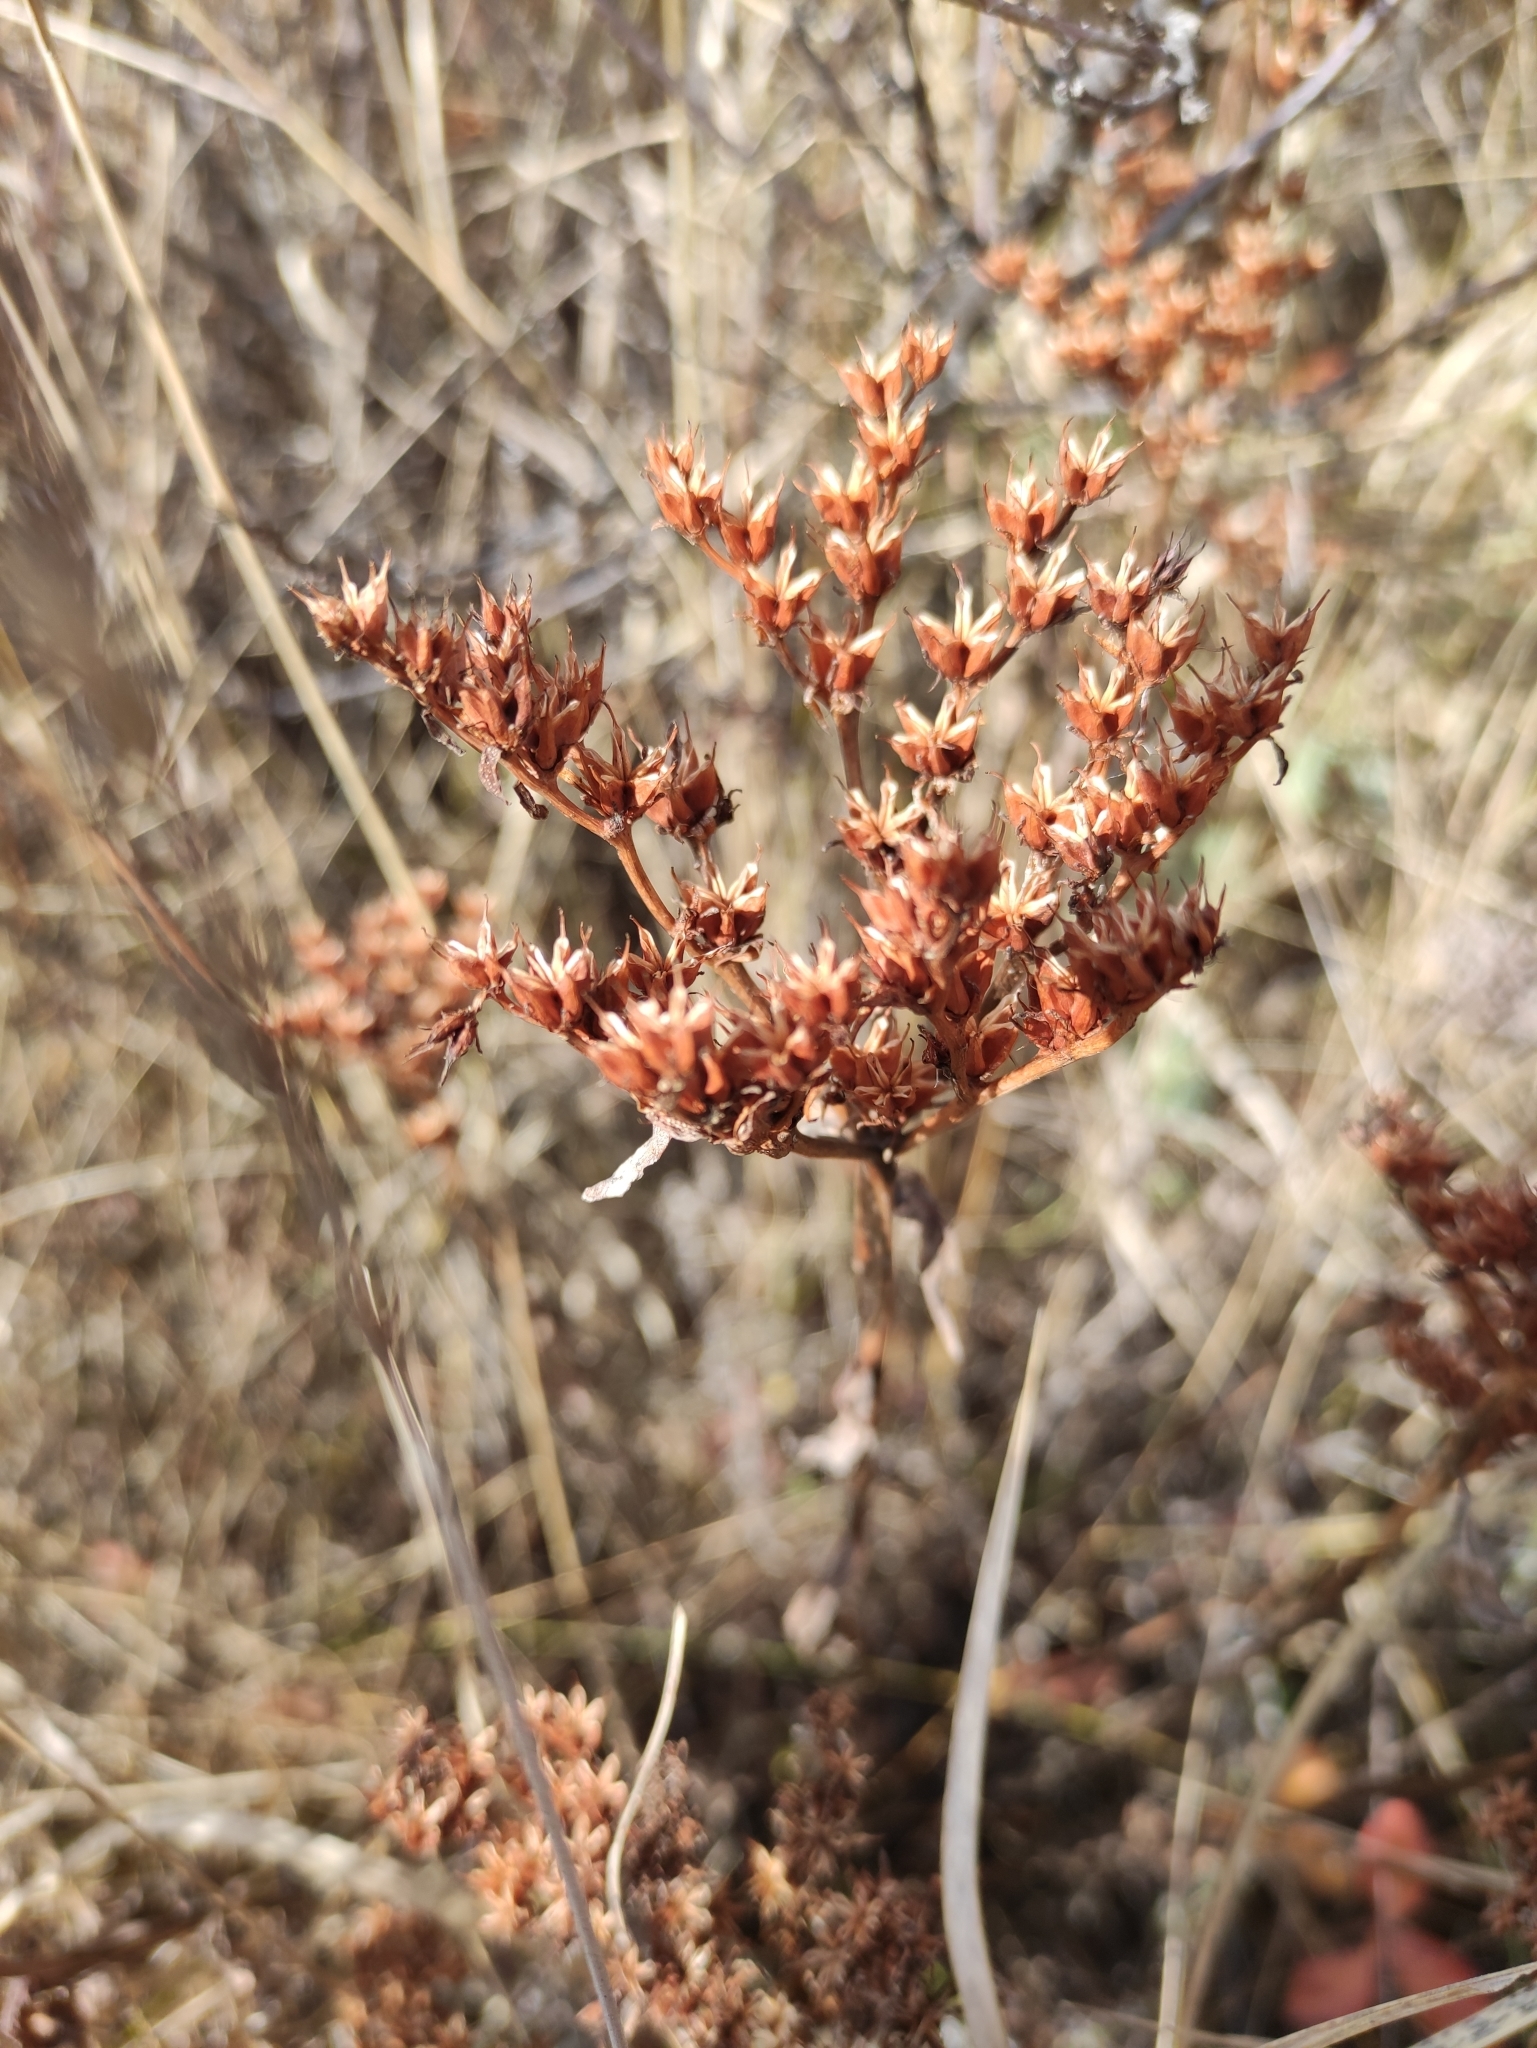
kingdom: Plantae
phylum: Tracheophyta
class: Magnoliopsida
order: Saxifragales
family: Crassulaceae
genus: Phedimus
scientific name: Phedimus aizoon
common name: Orpin aizoon
